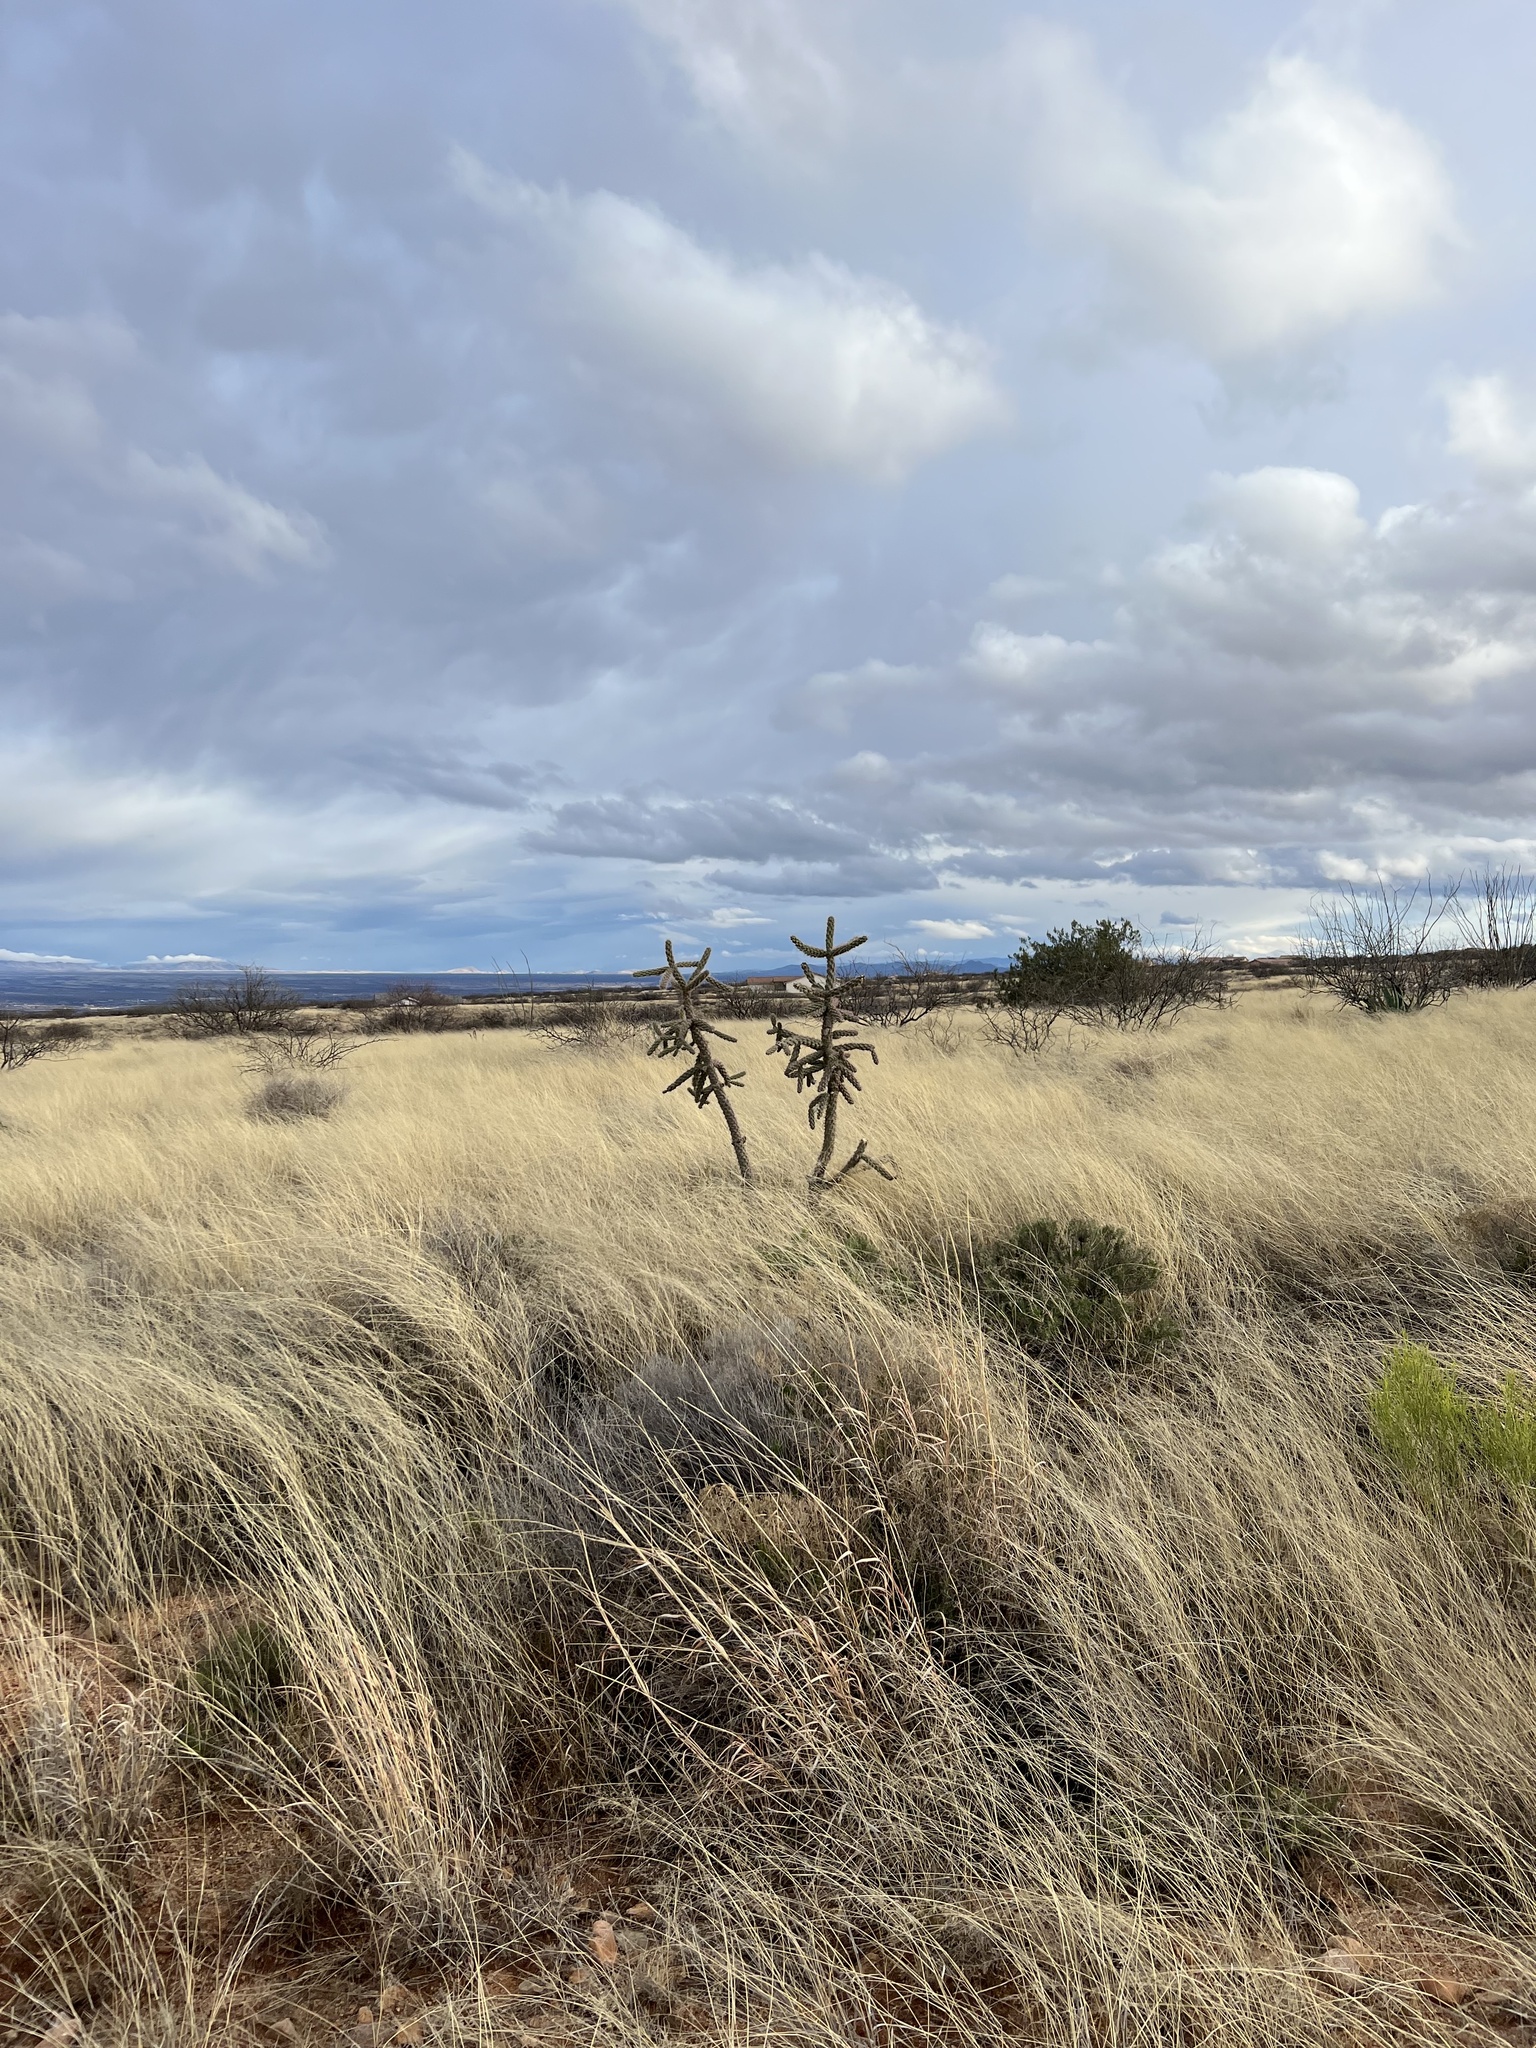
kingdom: Plantae
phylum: Tracheophyta
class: Magnoliopsida
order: Caryophyllales
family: Cactaceae
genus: Cylindropuntia
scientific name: Cylindropuntia imbricata
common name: Candelabrum cactus
